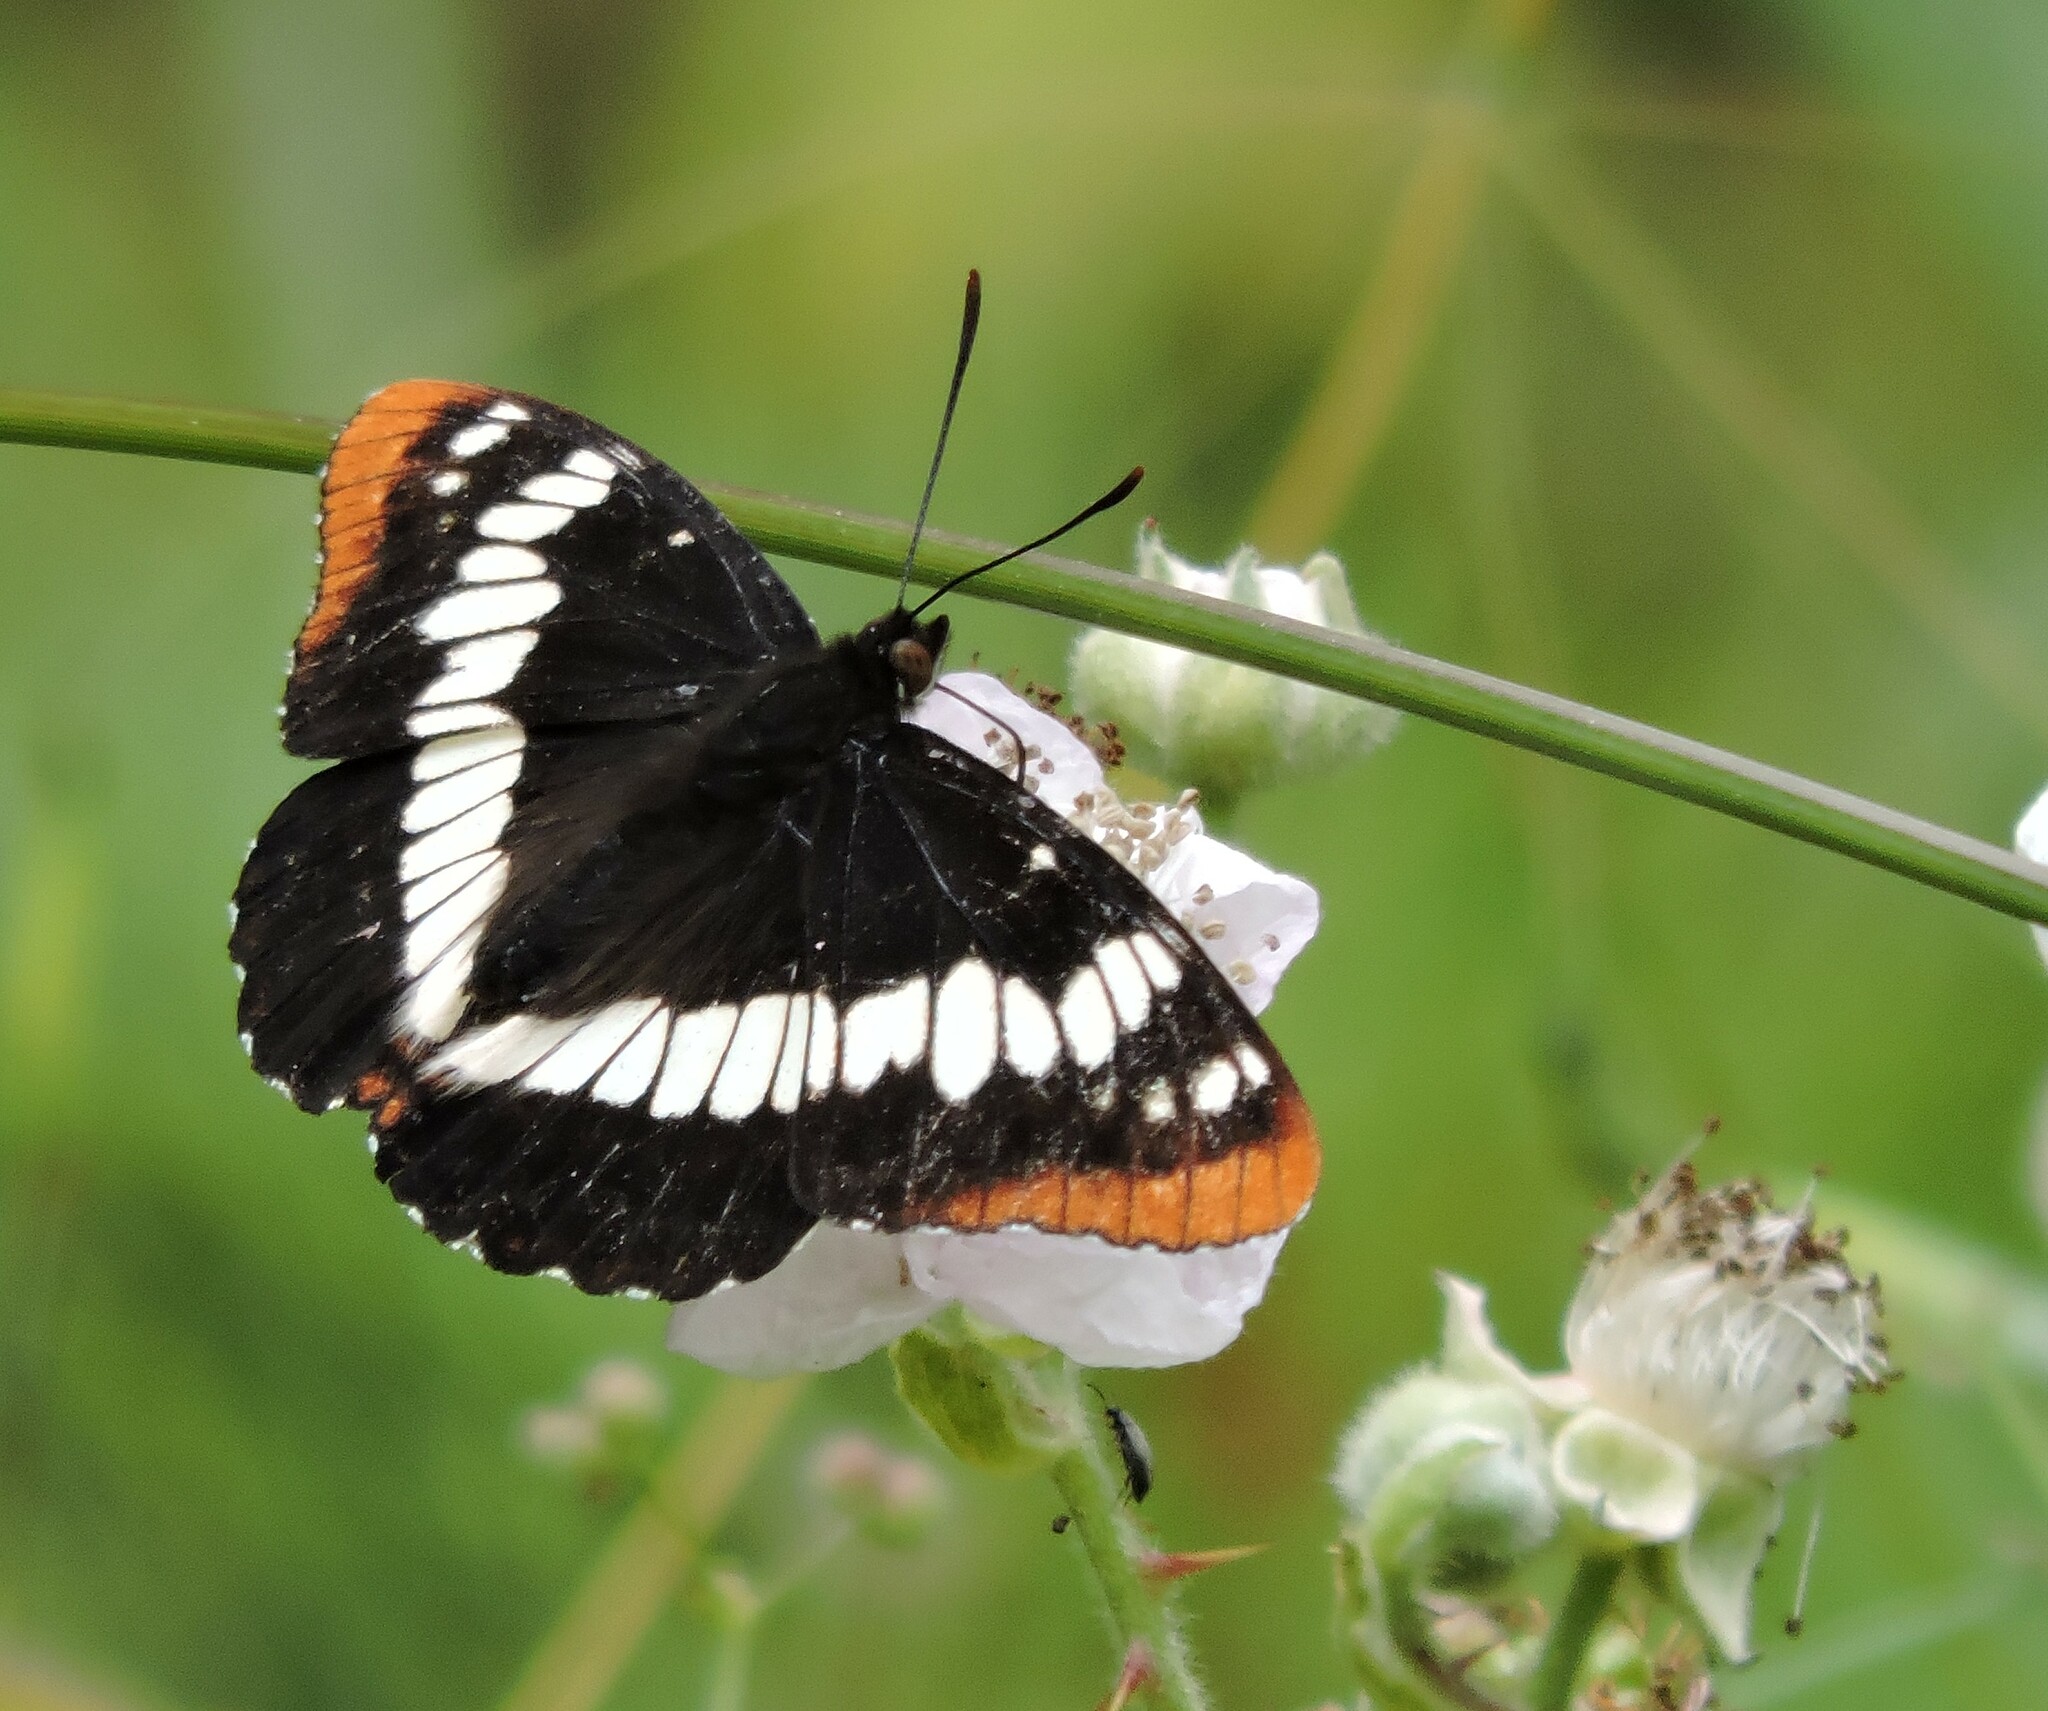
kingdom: Animalia
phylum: Arthropoda
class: Insecta
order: Lepidoptera
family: Nymphalidae
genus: Limenitis
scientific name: Limenitis lorquini
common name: Lorquin's admiral
